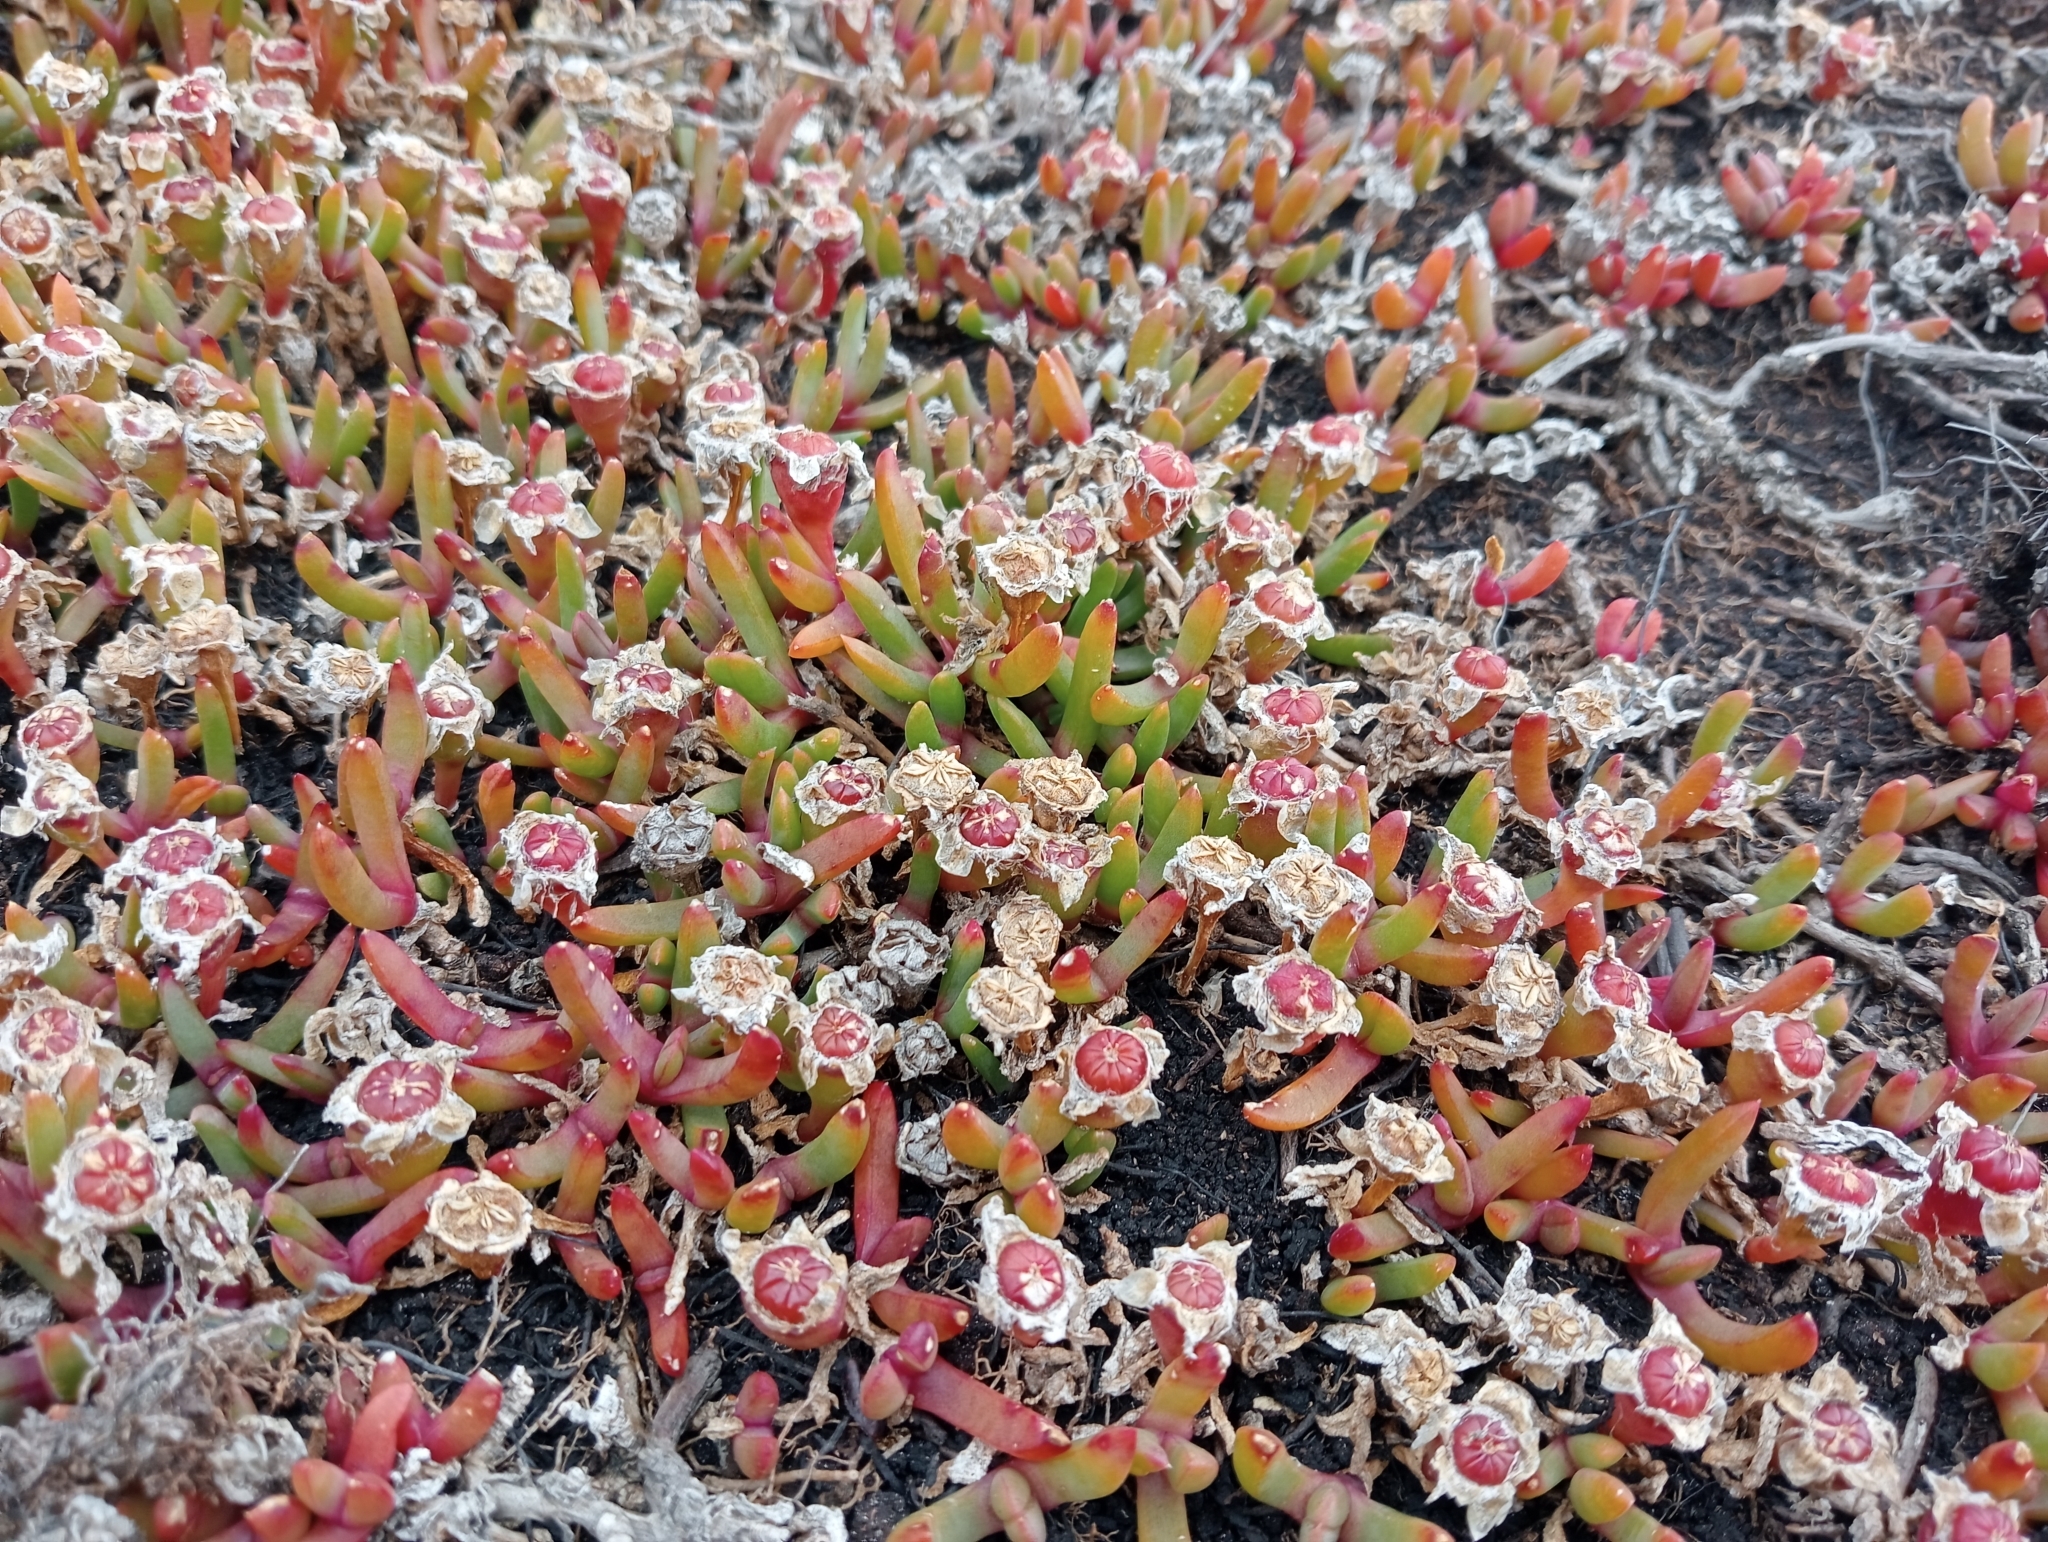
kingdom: Plantae
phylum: Tracheophyta
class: Magnoliopsida
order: Caryophyllales
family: Aizoaceae
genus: Disphyma
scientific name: Disphyma australe
